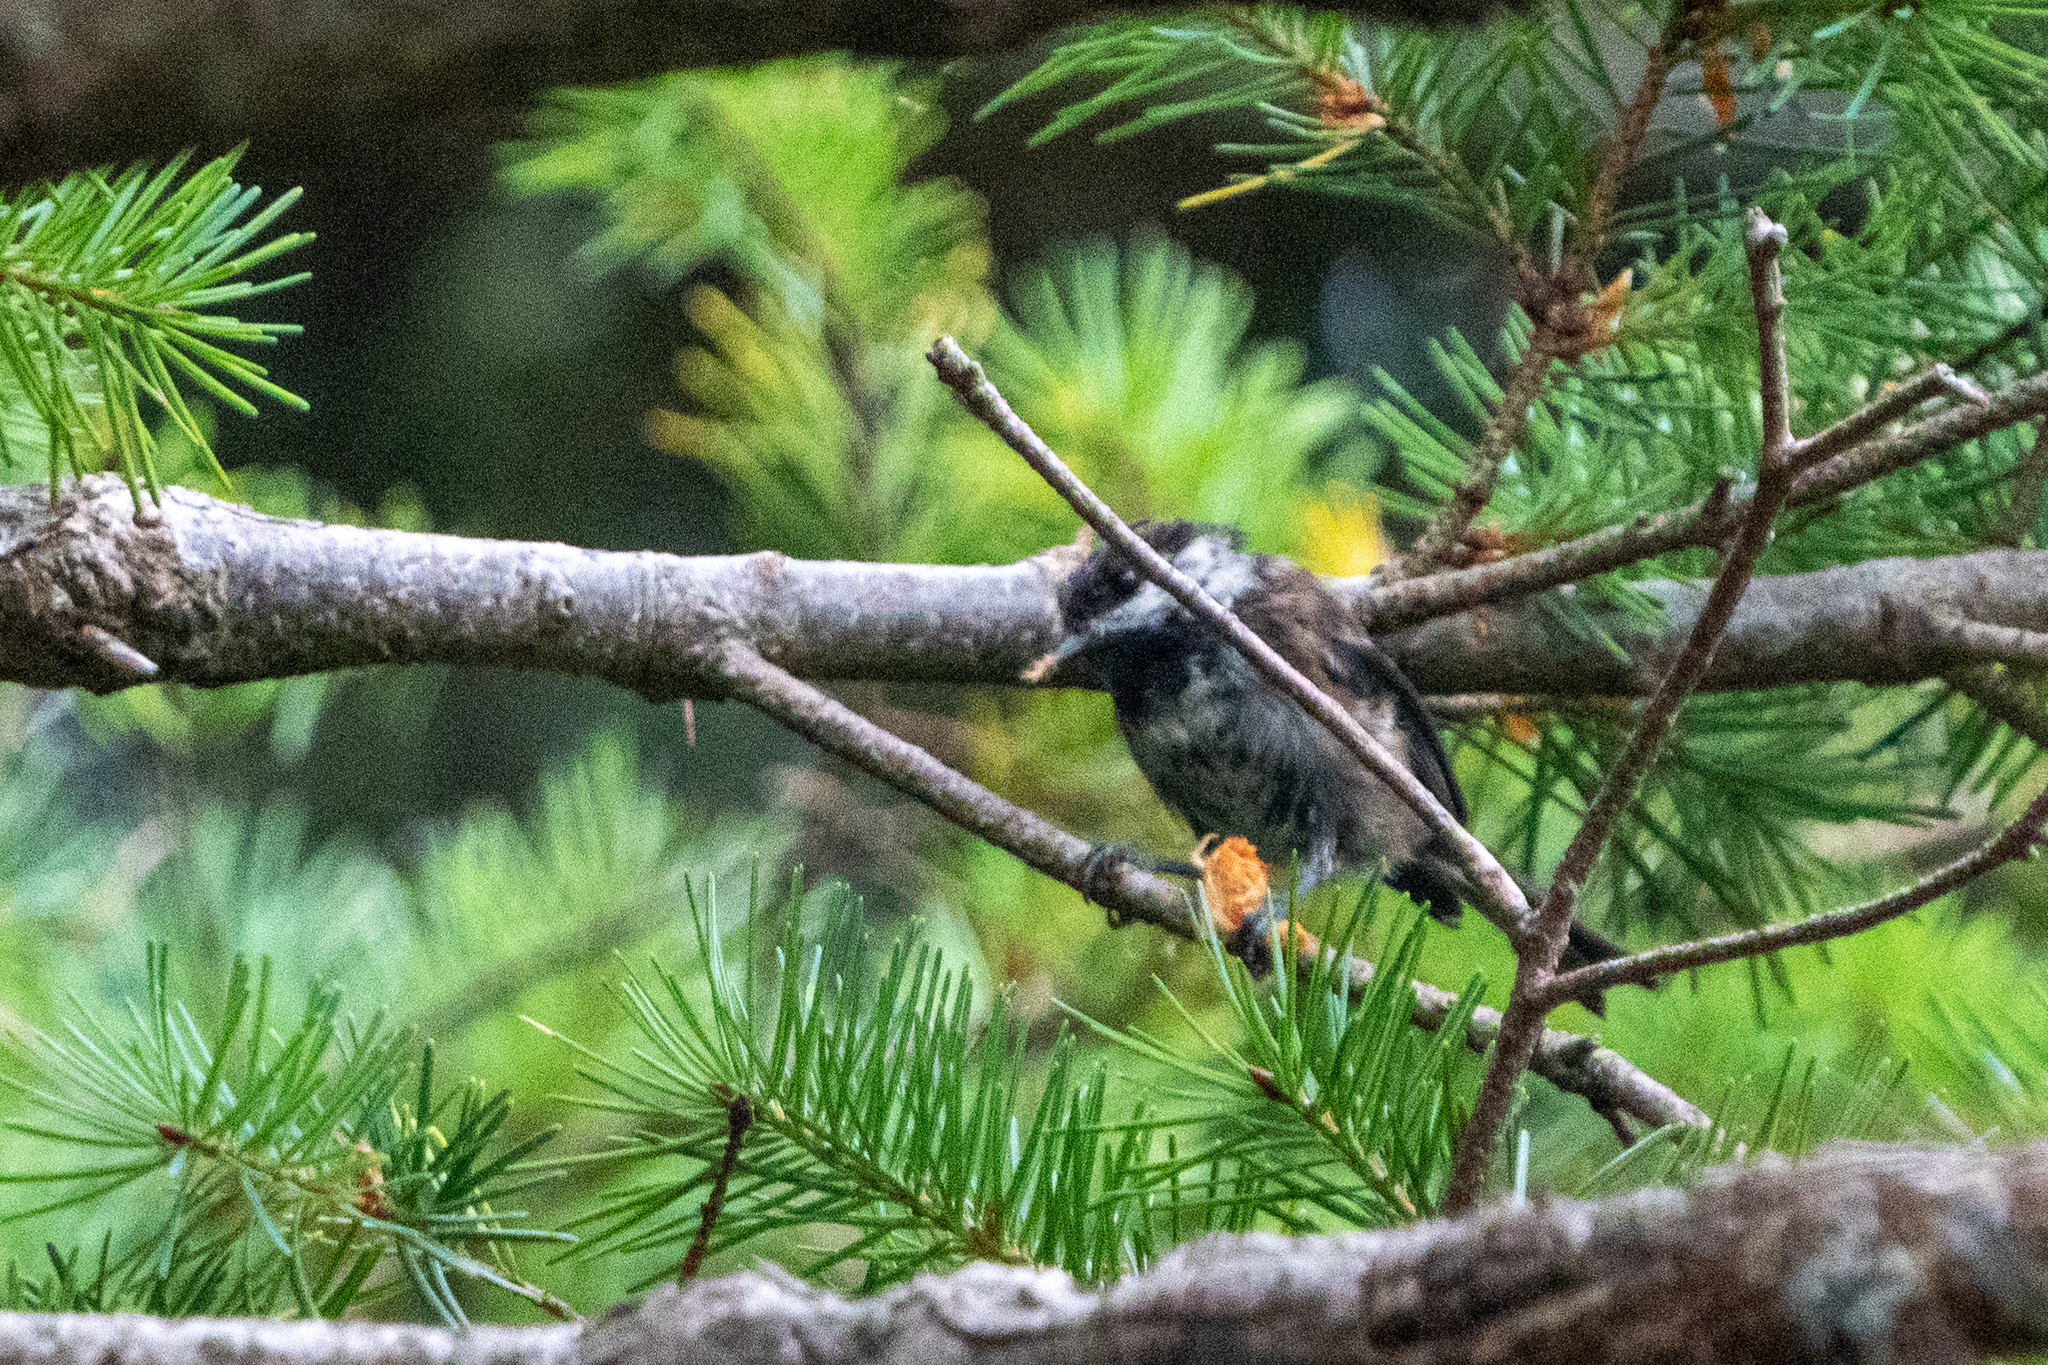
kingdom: Animalia
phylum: Chordata
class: Aves
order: Passeriformes
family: Paridae
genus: Poecile
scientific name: Poecile rufescens
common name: Chestnut-backed chickadee
